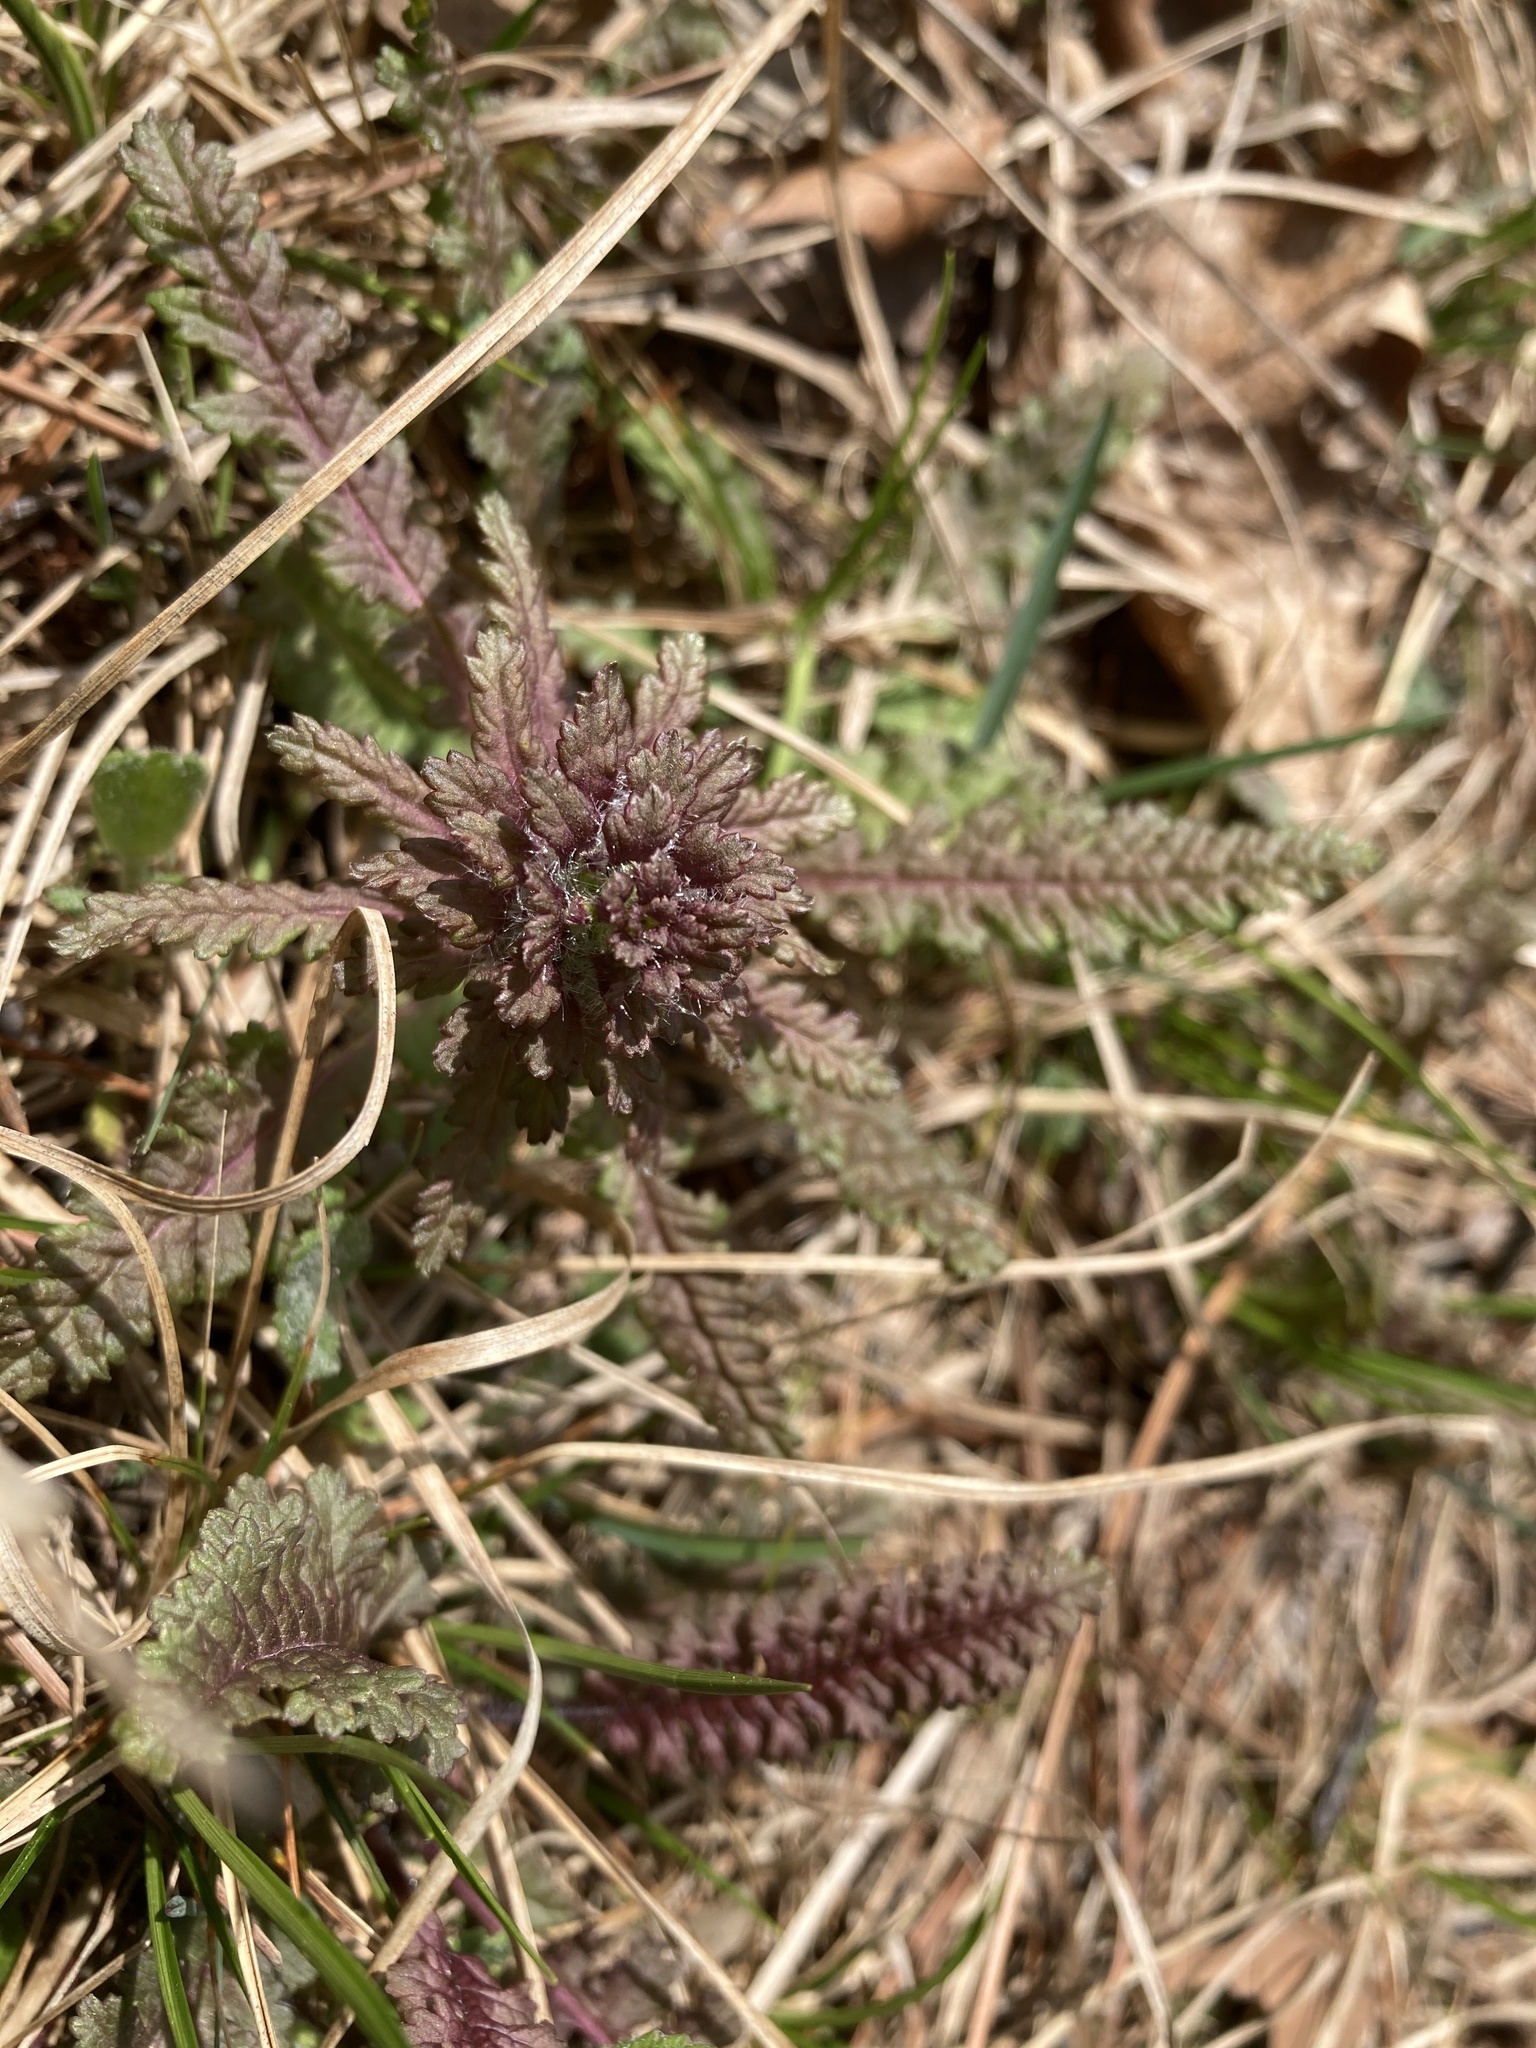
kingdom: Plantae
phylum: Tracheophyta
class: Magnoliopsida
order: Lamiales
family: Orobanchaceae
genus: Pedicularis
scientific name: Pedicularis canadensis
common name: Early lousewort
